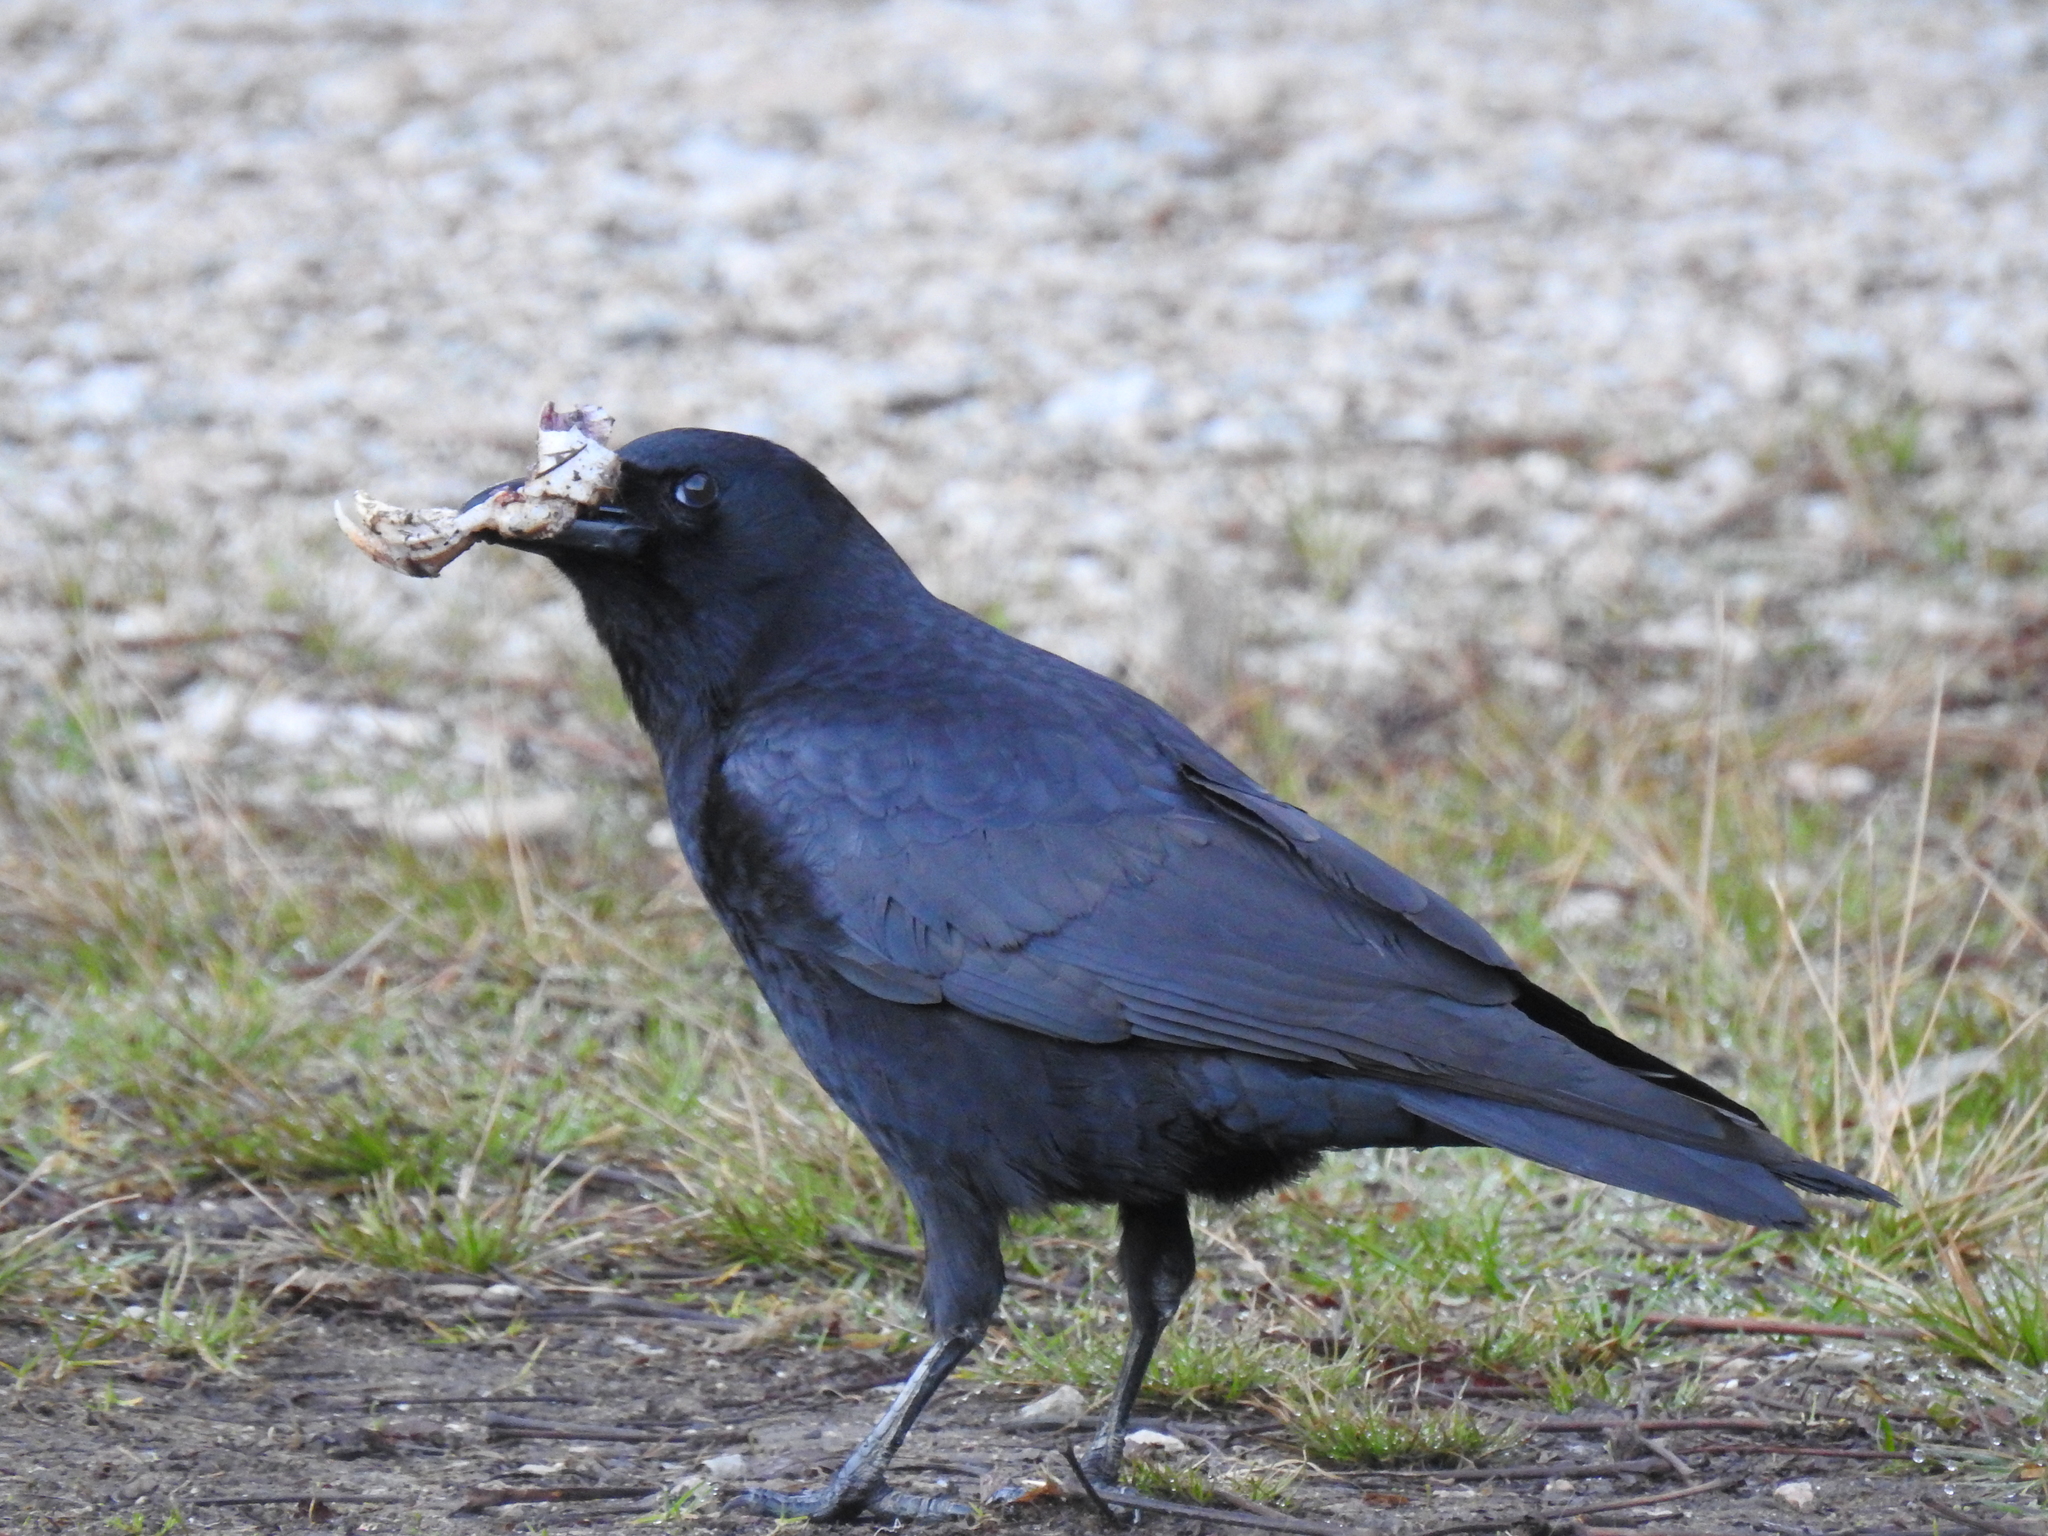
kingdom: Animalia
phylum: Chordata
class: Aves
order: Passeriformes
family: Corvidae
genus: Corvus
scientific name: Corvus brachyrhynchos
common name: American crow
